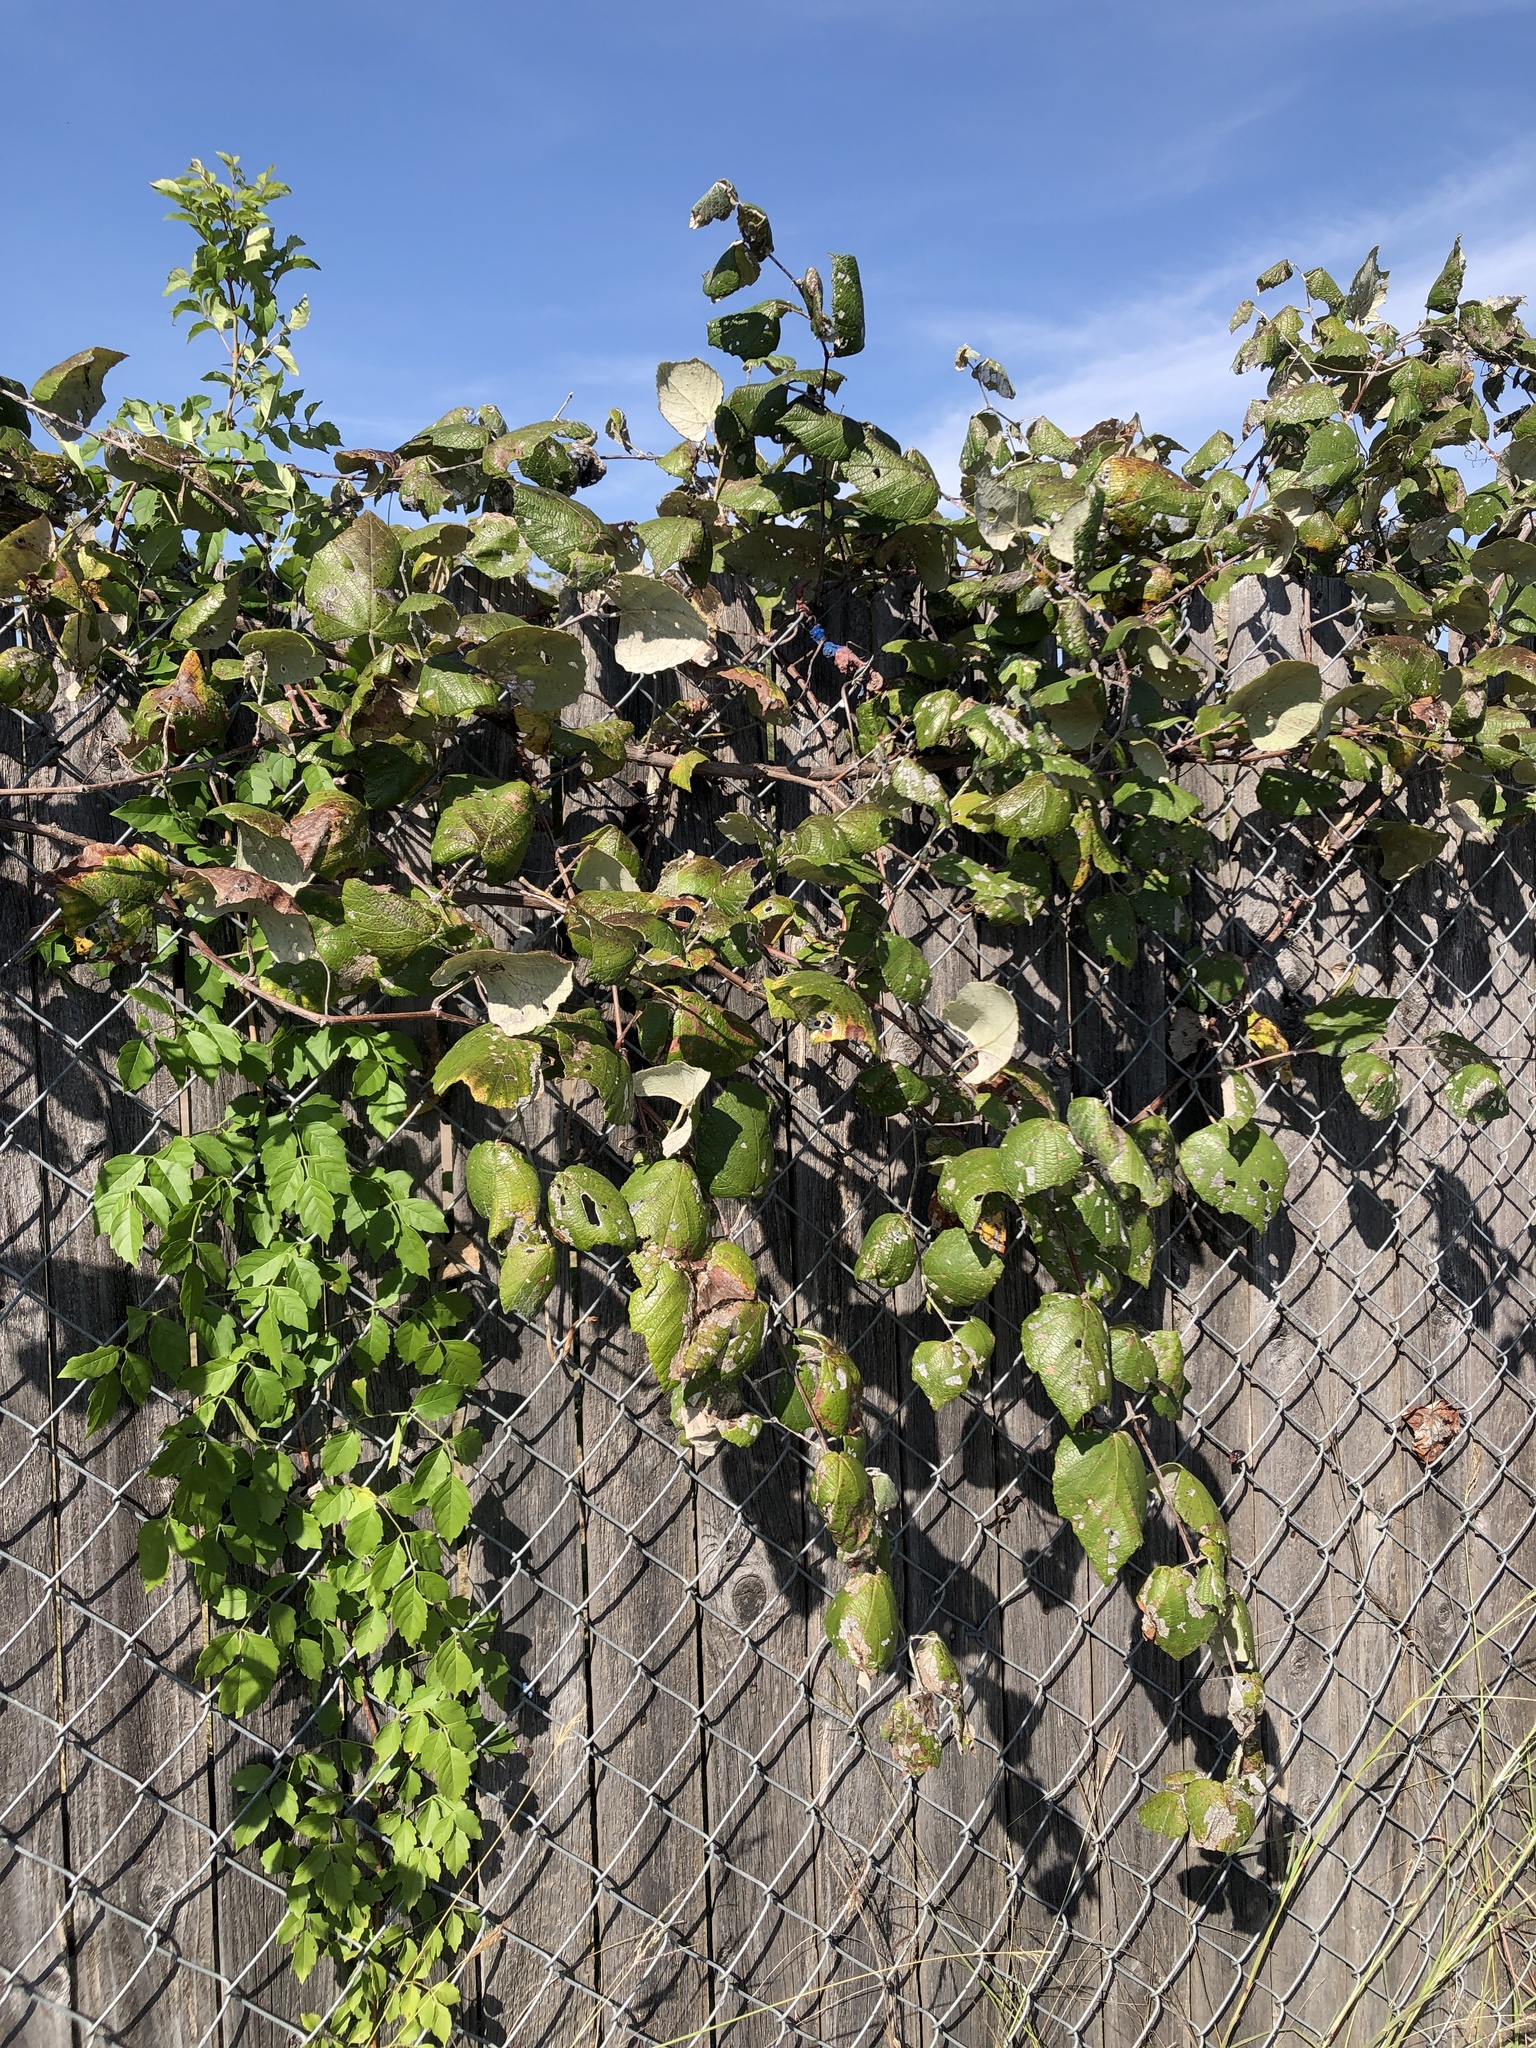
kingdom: Plantae
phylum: Tracheophyta
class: Magnoliopsida
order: Vitales
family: Vitaceae
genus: Vitis
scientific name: Vitis mustangensis
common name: Mustang grape
